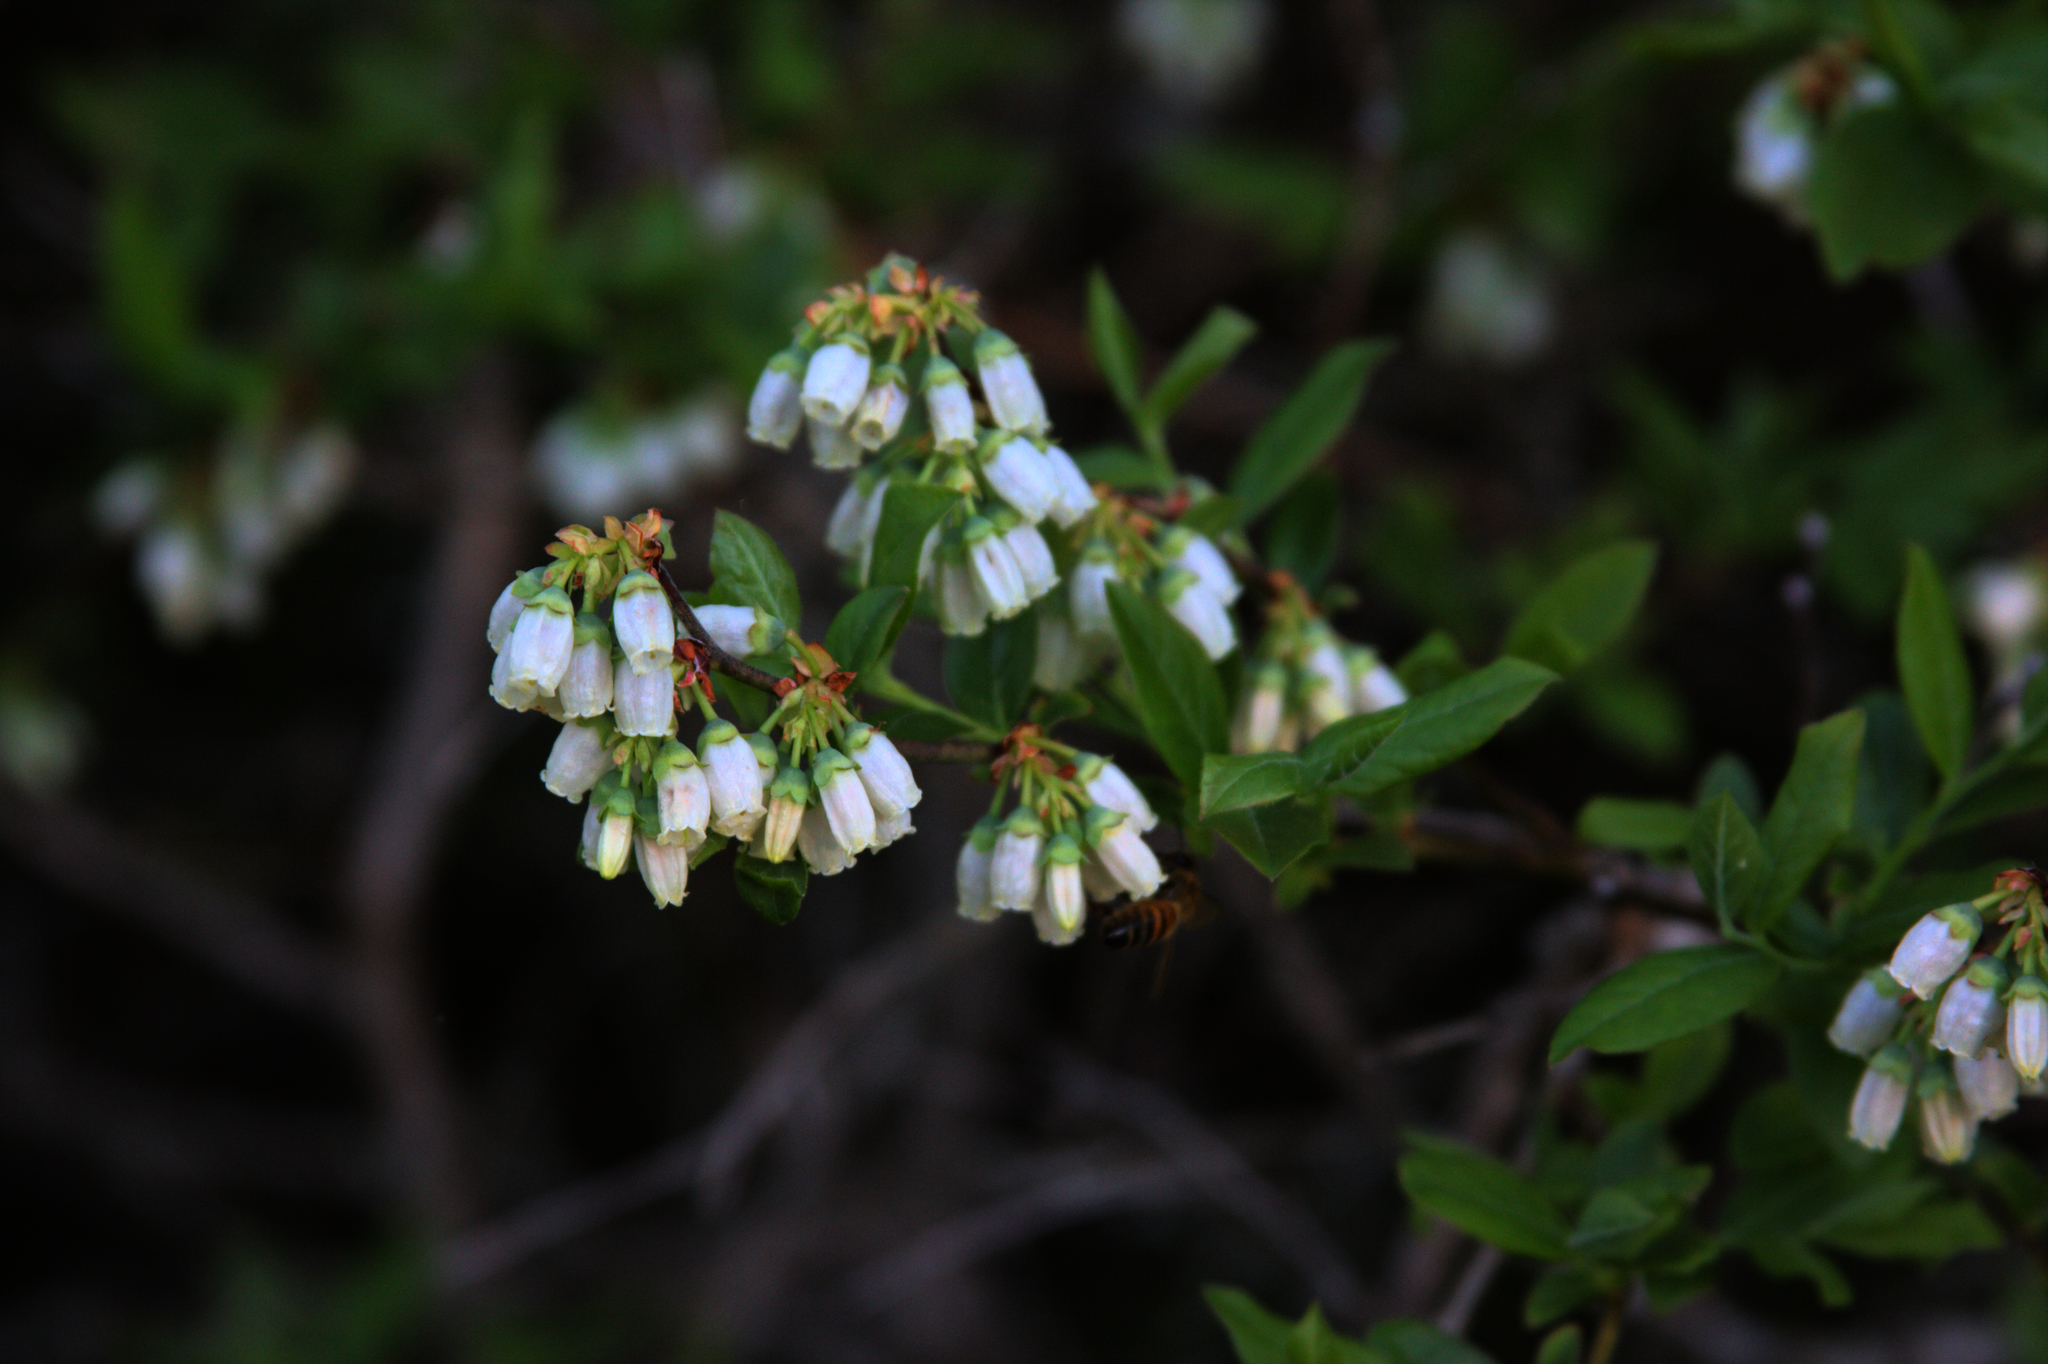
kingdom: Animalia
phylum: Arthropoda
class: Insecta
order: Hymenoptera
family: Apidae
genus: Apis
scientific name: Apis mellifera
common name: Honey bee
